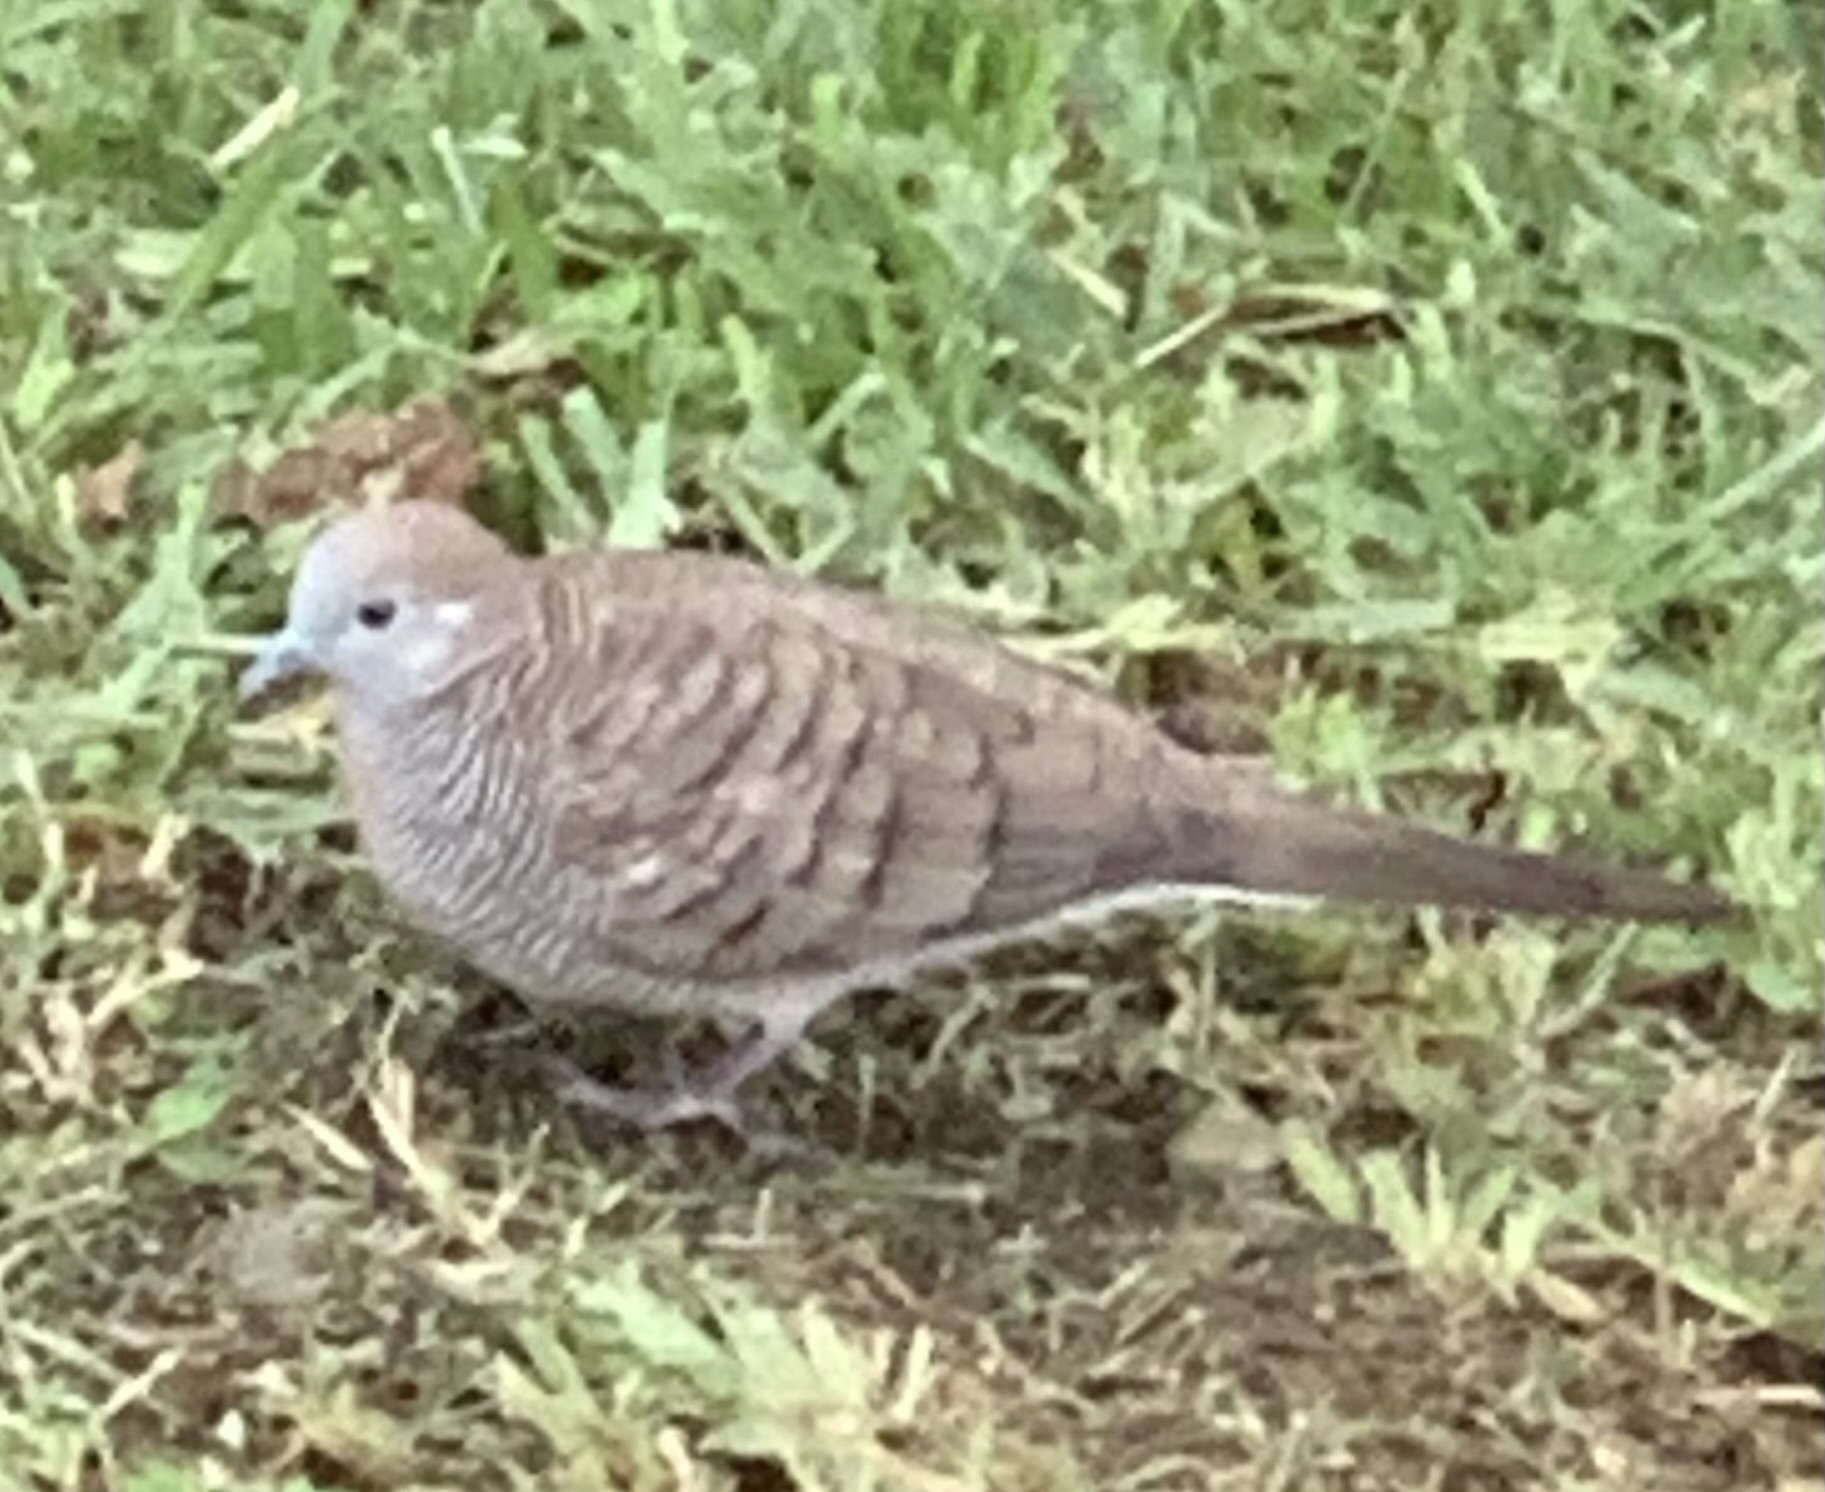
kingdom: Animalia
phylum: Chordata
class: Aves
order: Columbiformes
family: Columbidae
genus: Geopelia
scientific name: Geopelia striata
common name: Zebra dove
